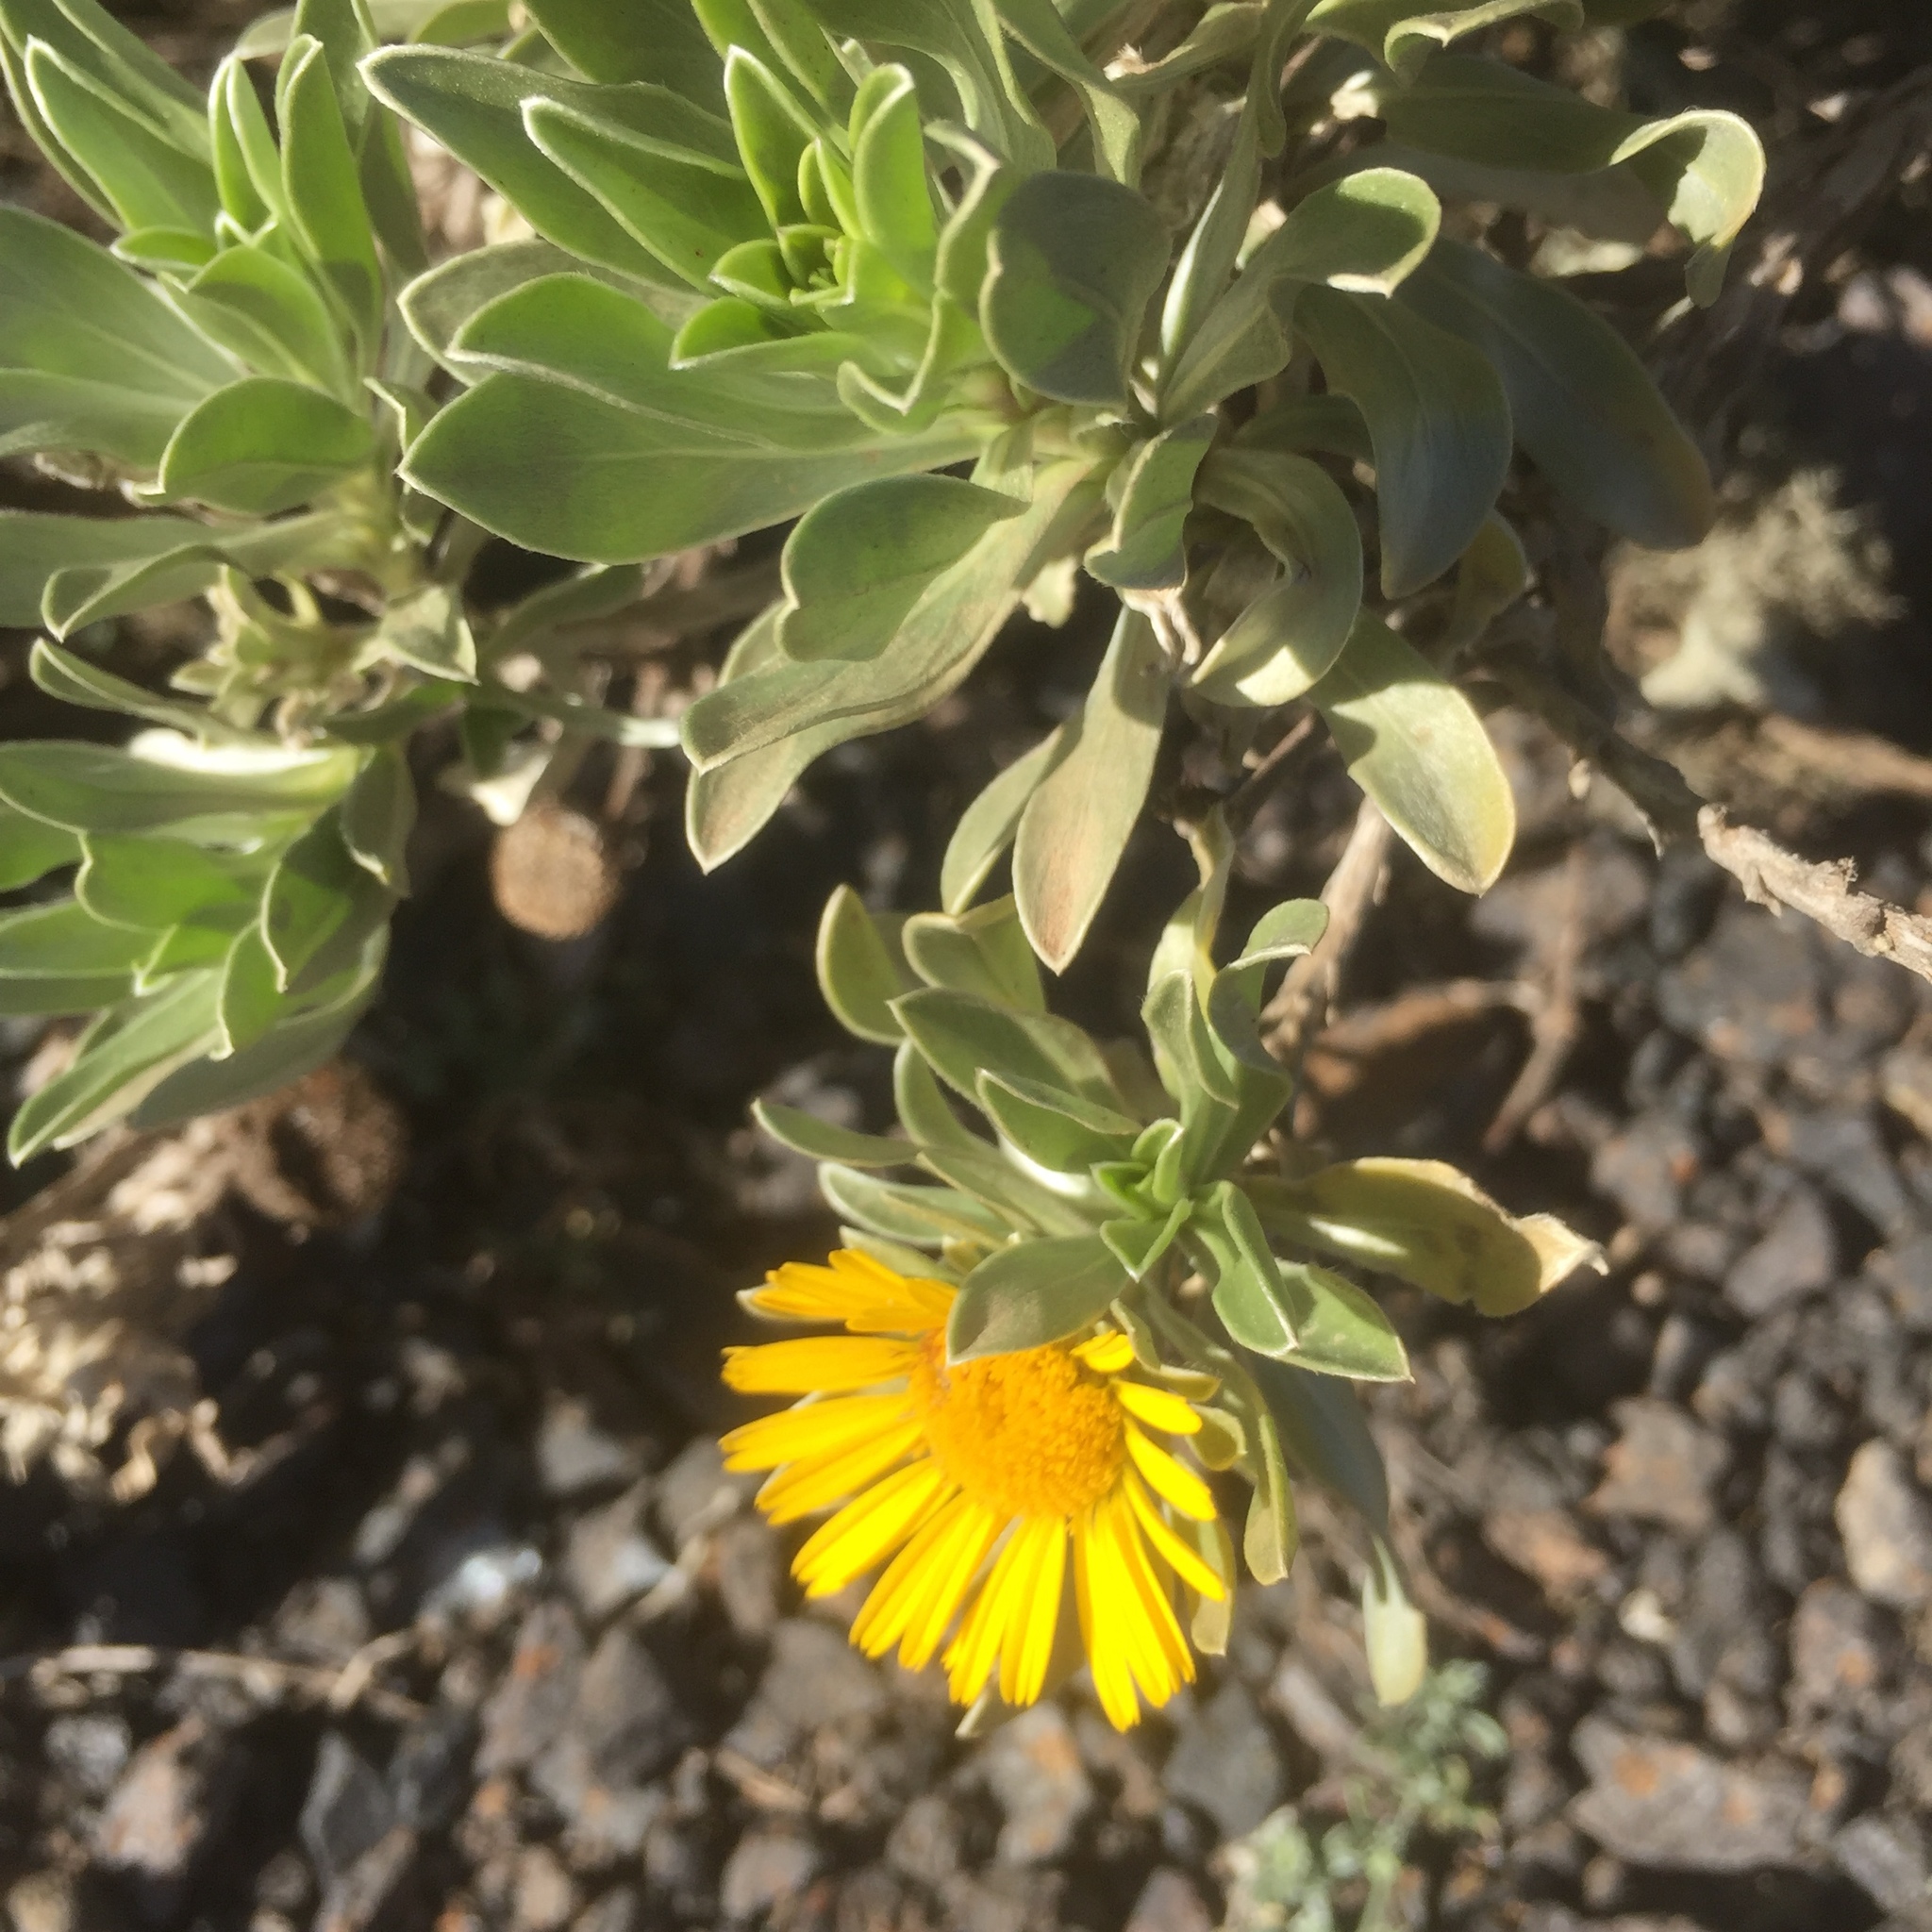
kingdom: Plantae
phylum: Tracheophyta
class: Magnoliopsida
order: Asterales
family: Asteraceae
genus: Asteriscus
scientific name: Asteriscus intermedius
